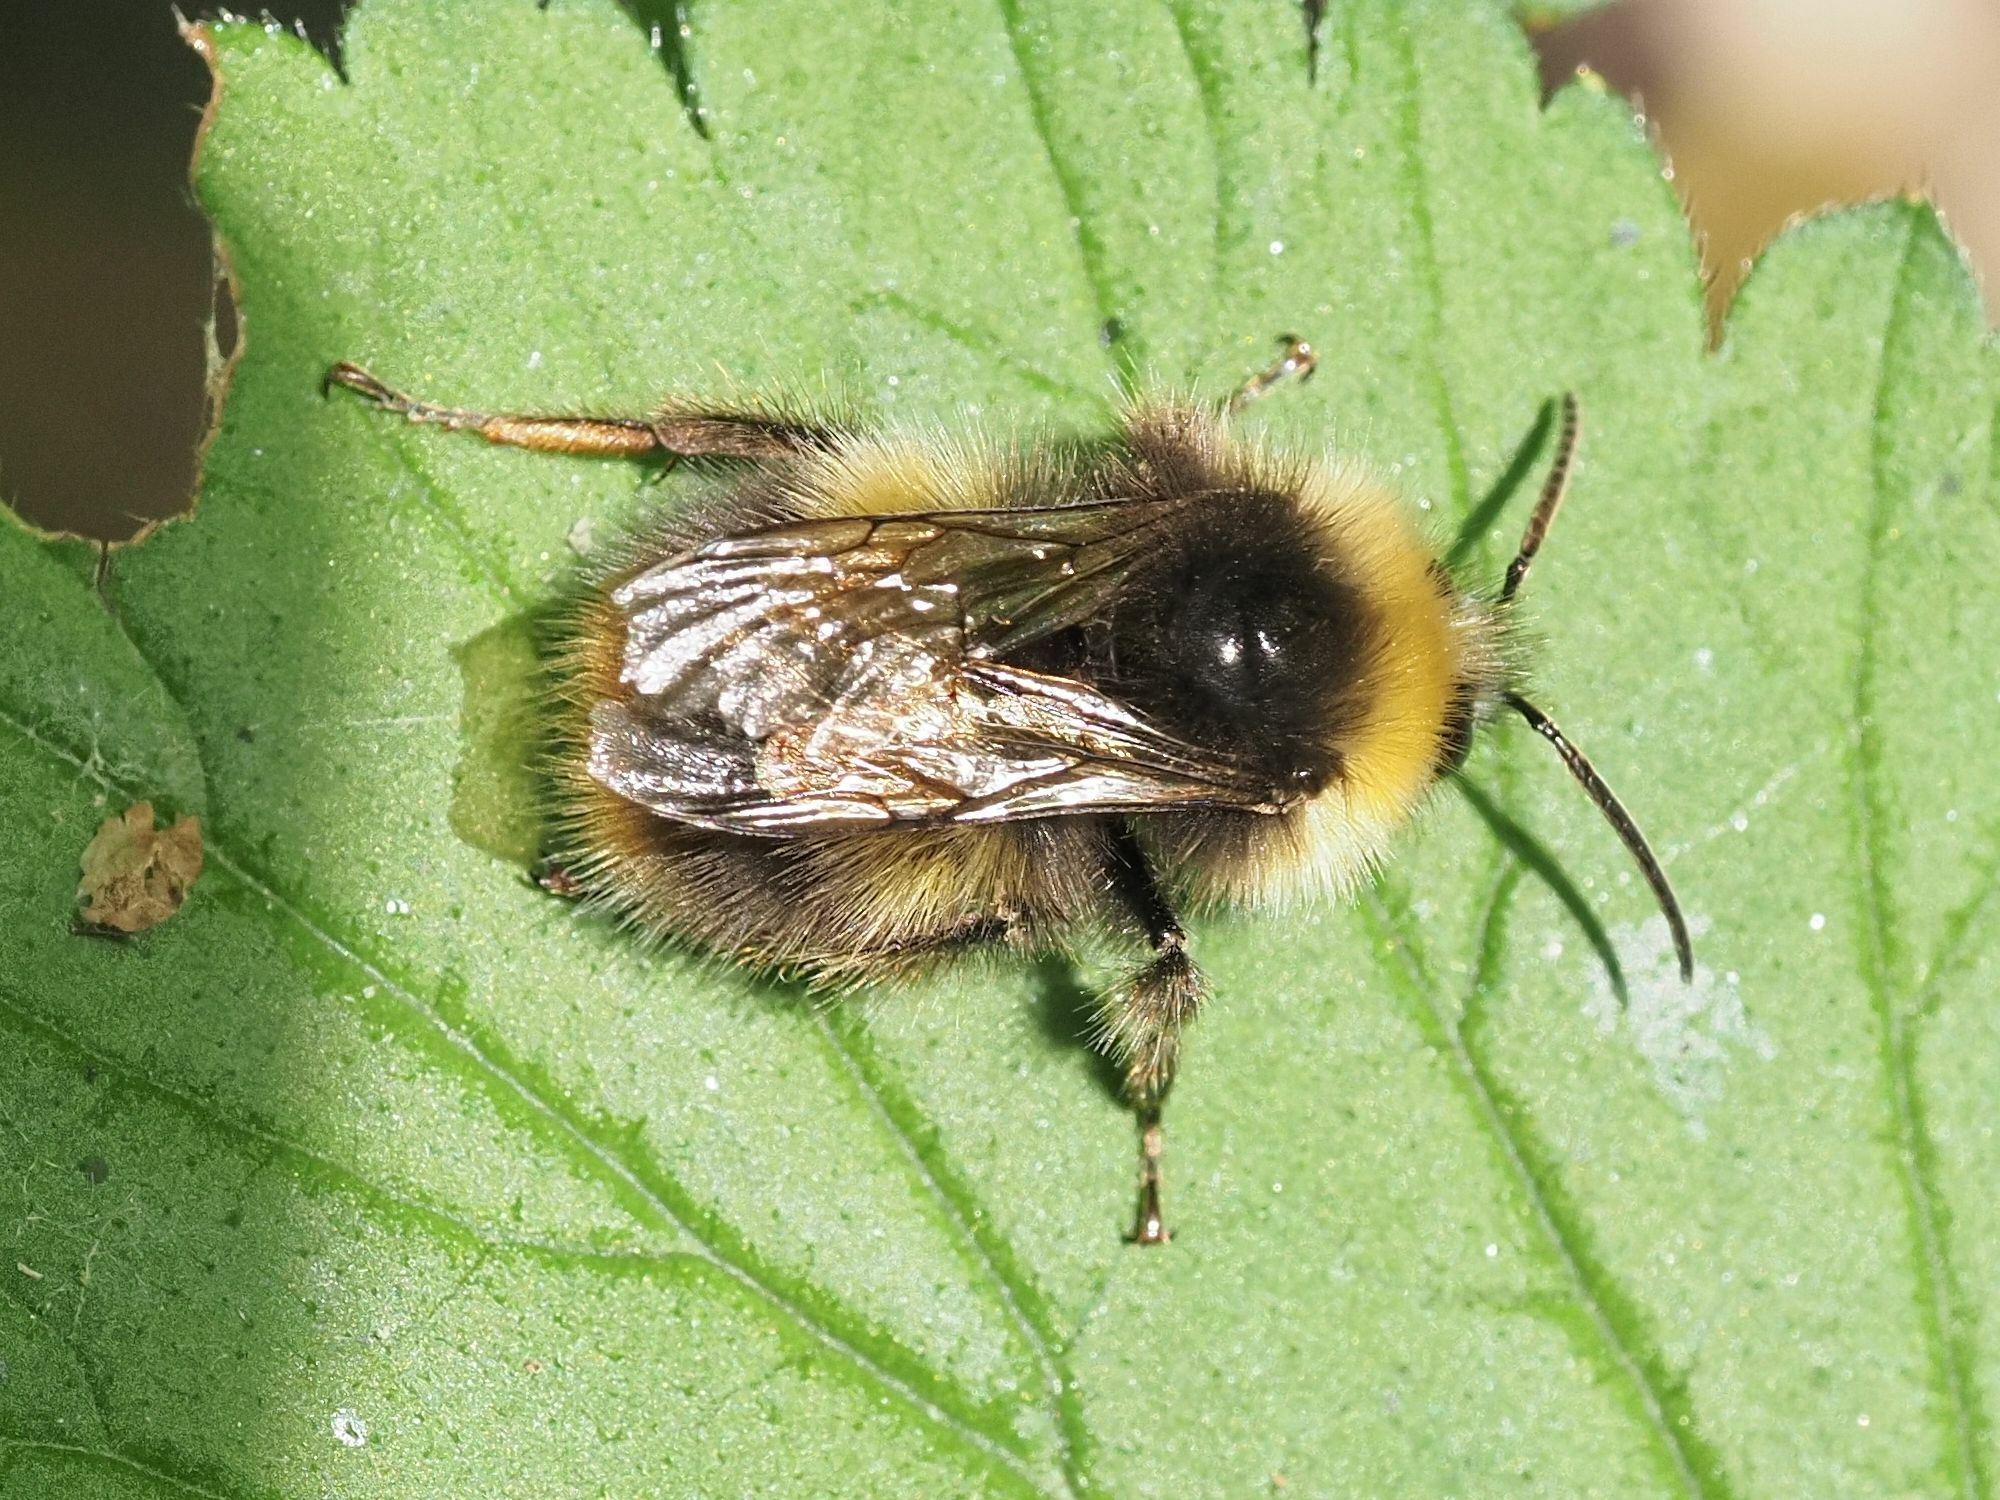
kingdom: Animalia
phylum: Arthropoda
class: Insecta
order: Hymenoptera
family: Apidae
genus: Bombus
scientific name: Bombus pratorum
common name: Early humble-bee
